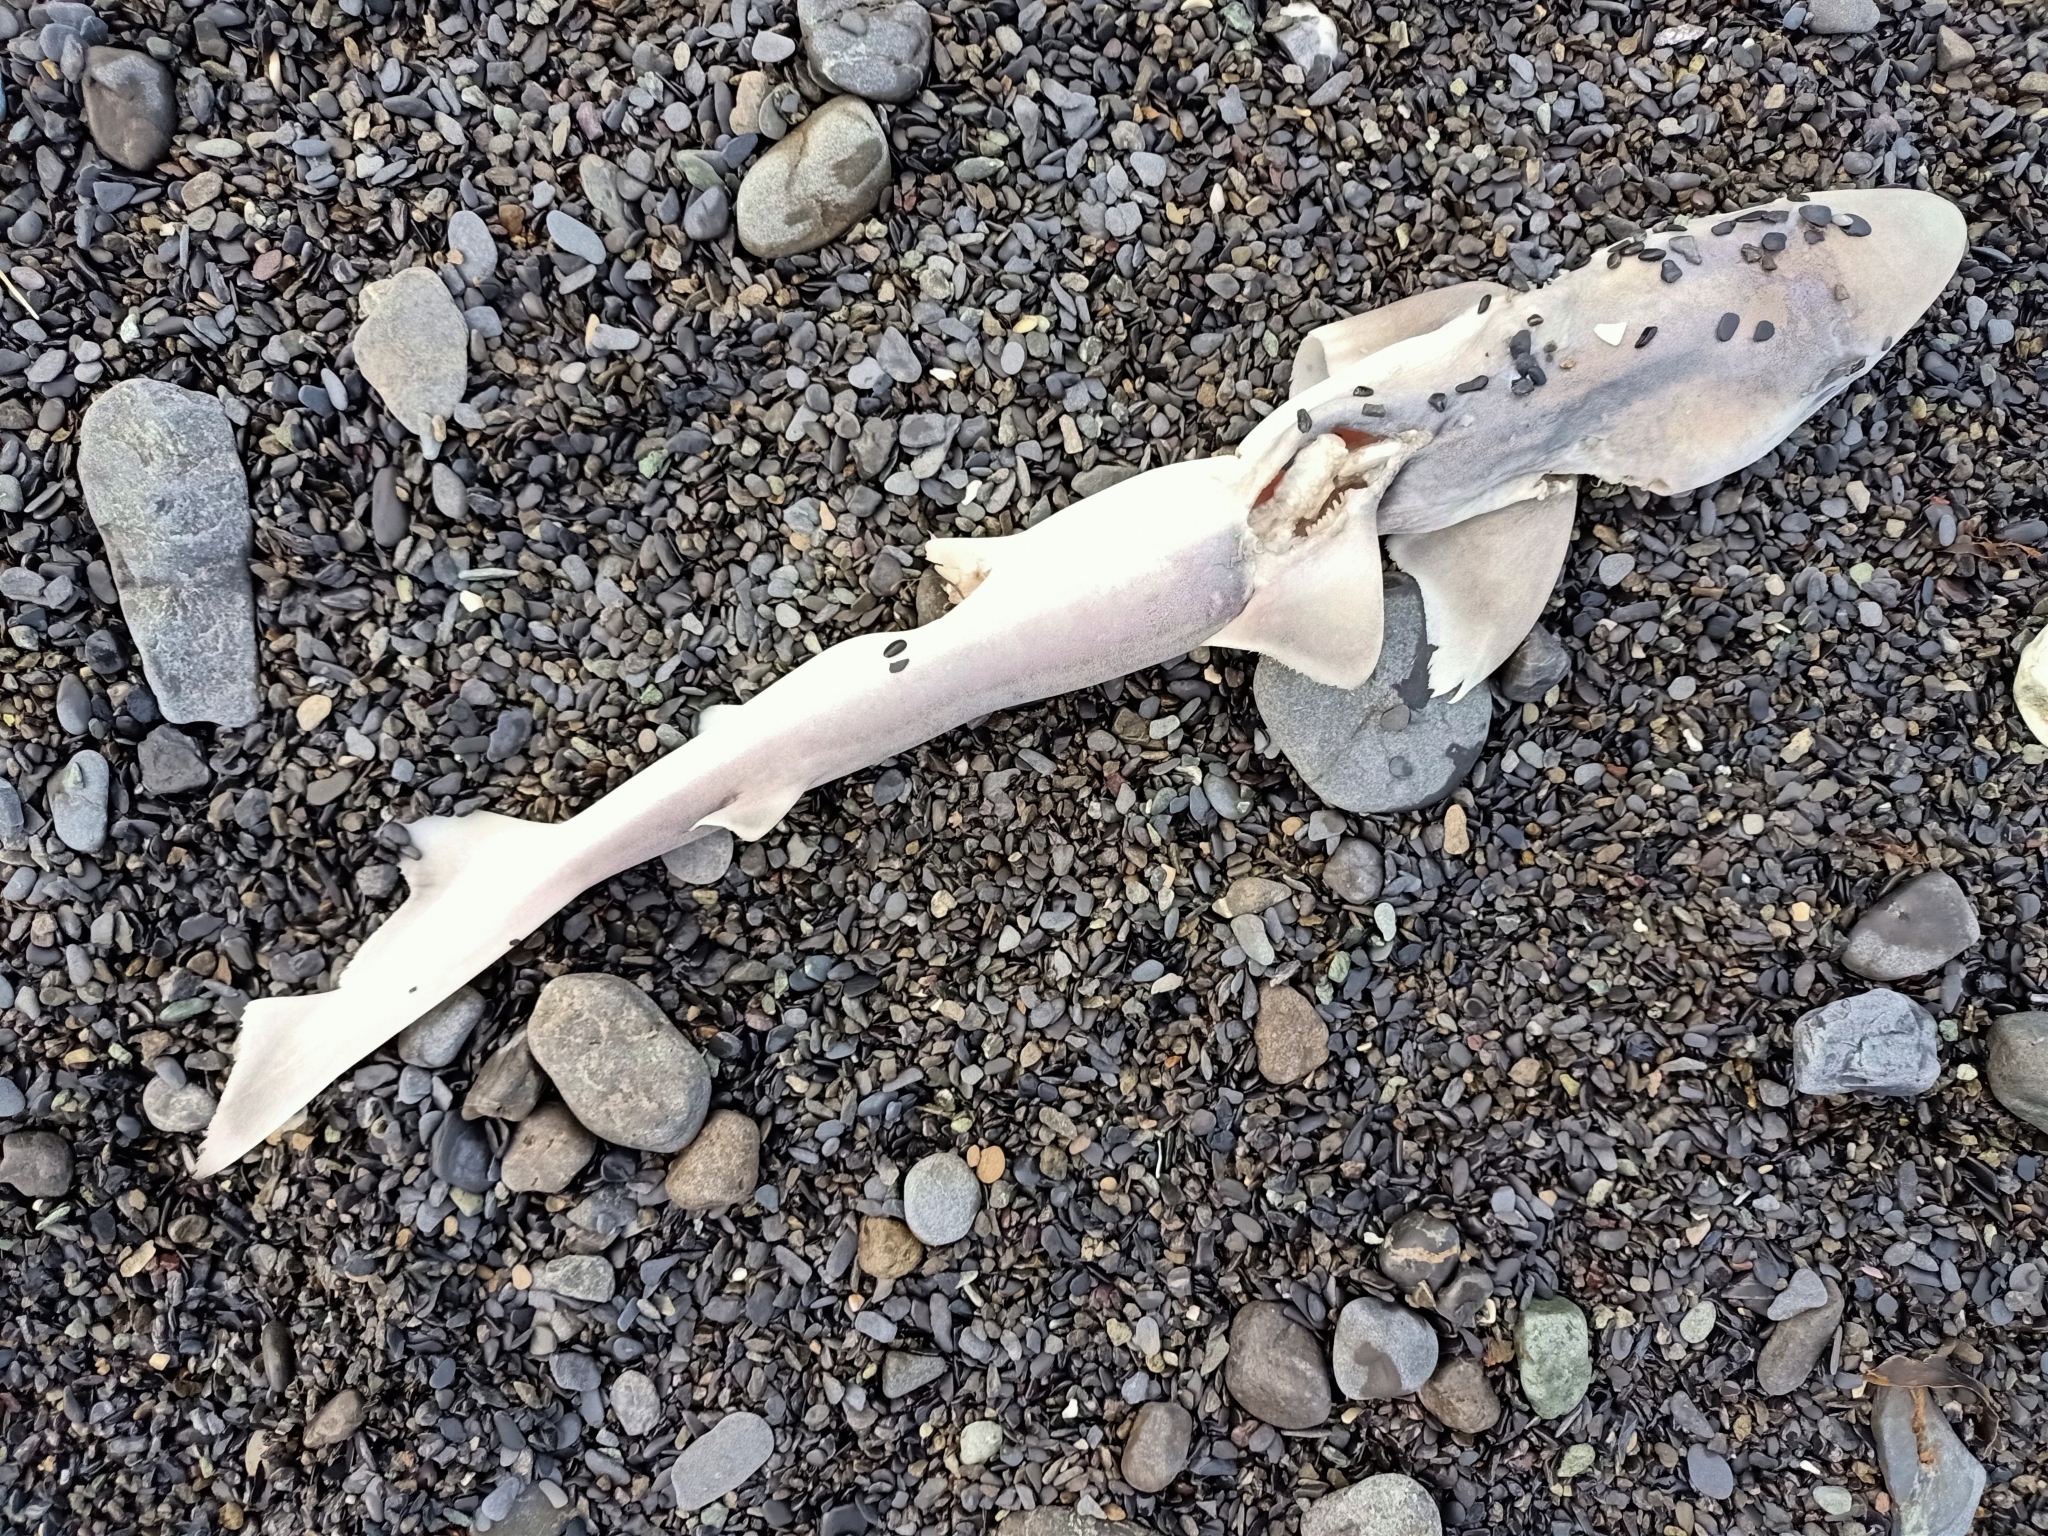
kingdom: Animalia
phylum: Chordata
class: Elasmobranchii
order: Carcharhiniformes
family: Triakidae
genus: Galeorhinus
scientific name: Galeorhinus galeus
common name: Tope
